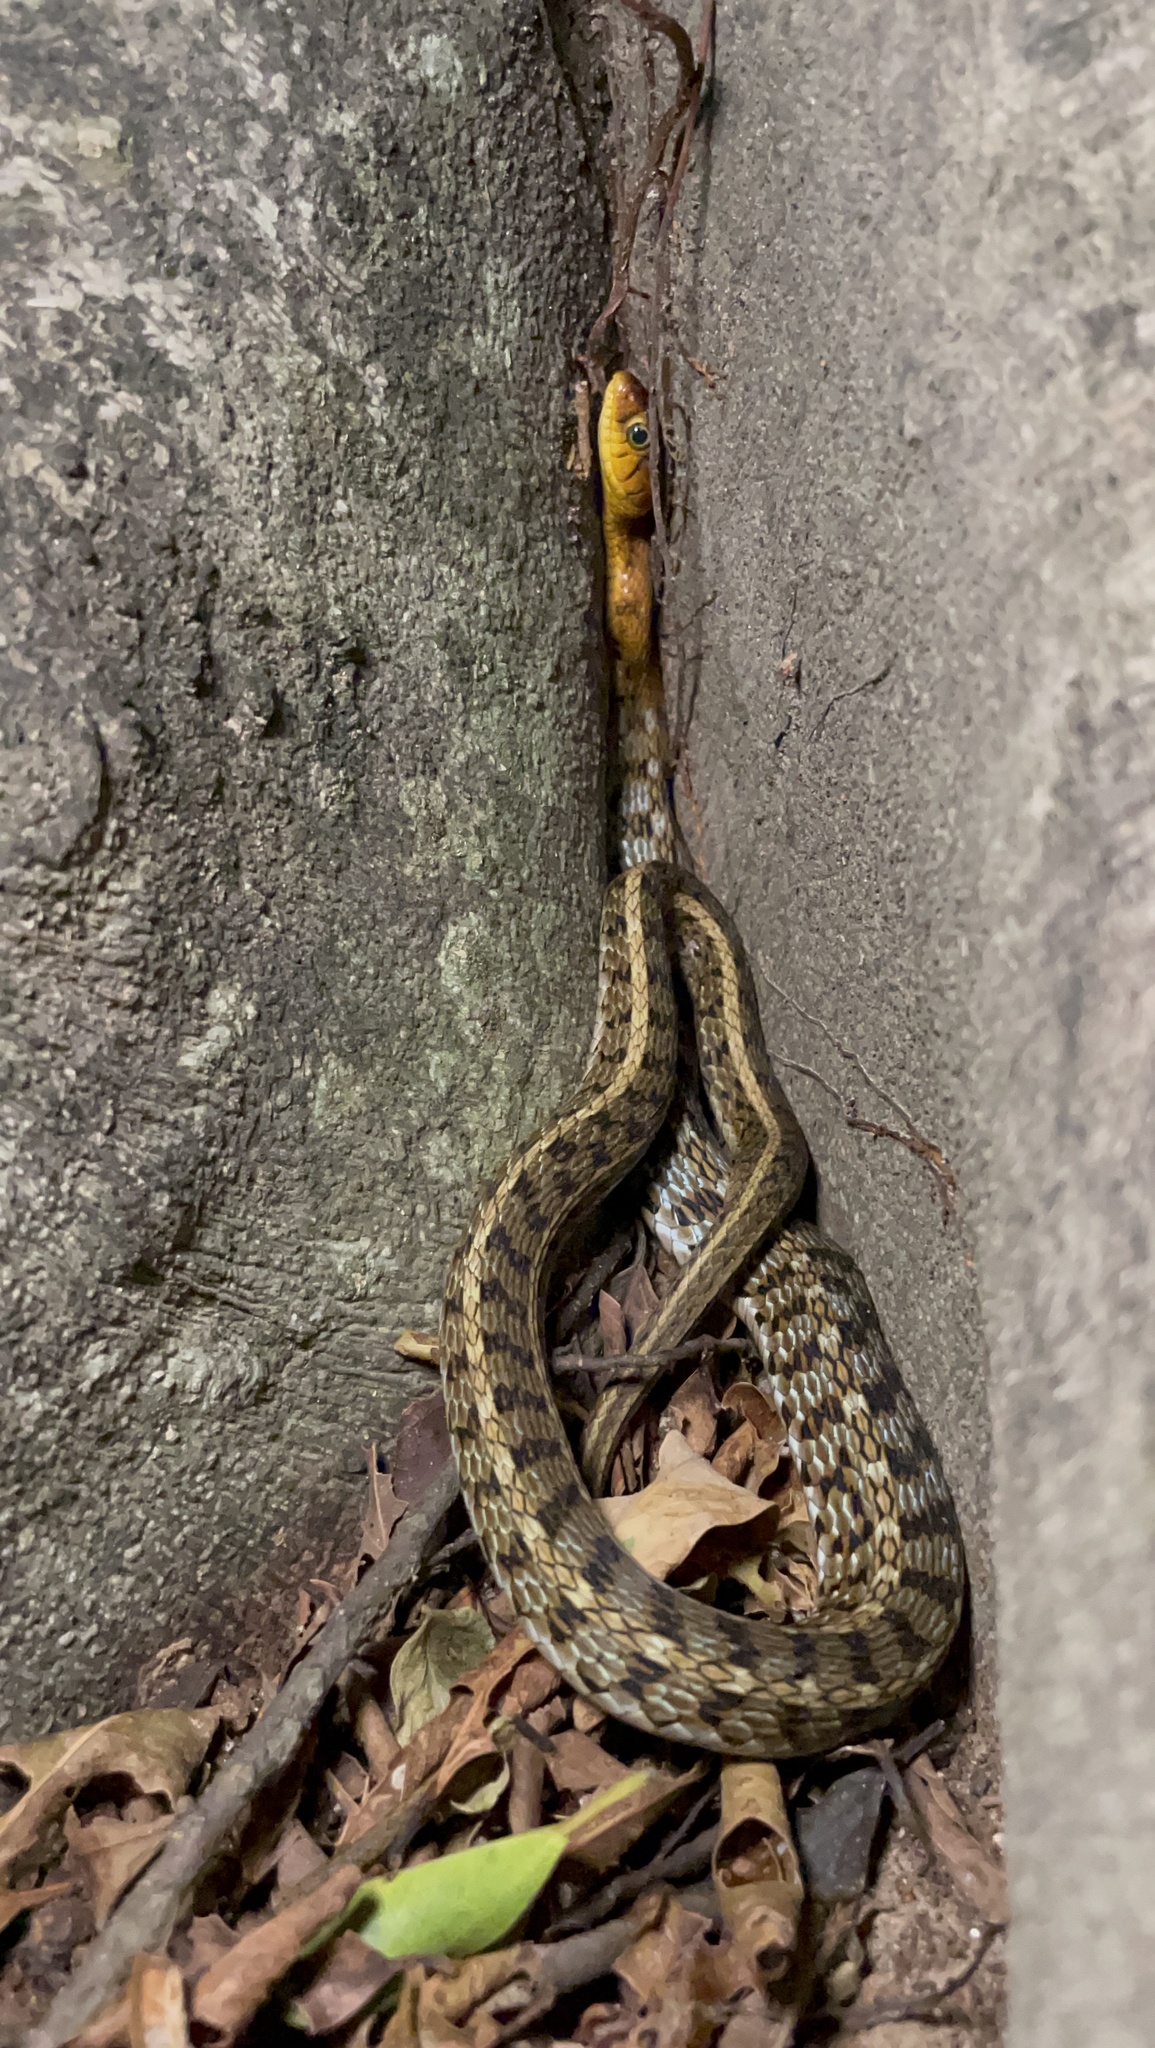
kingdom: Animalia
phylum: Chordata
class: Squamata
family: Colubridae
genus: Amphiesma
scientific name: Amphiesma stolatum
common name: Buff striped keelback
